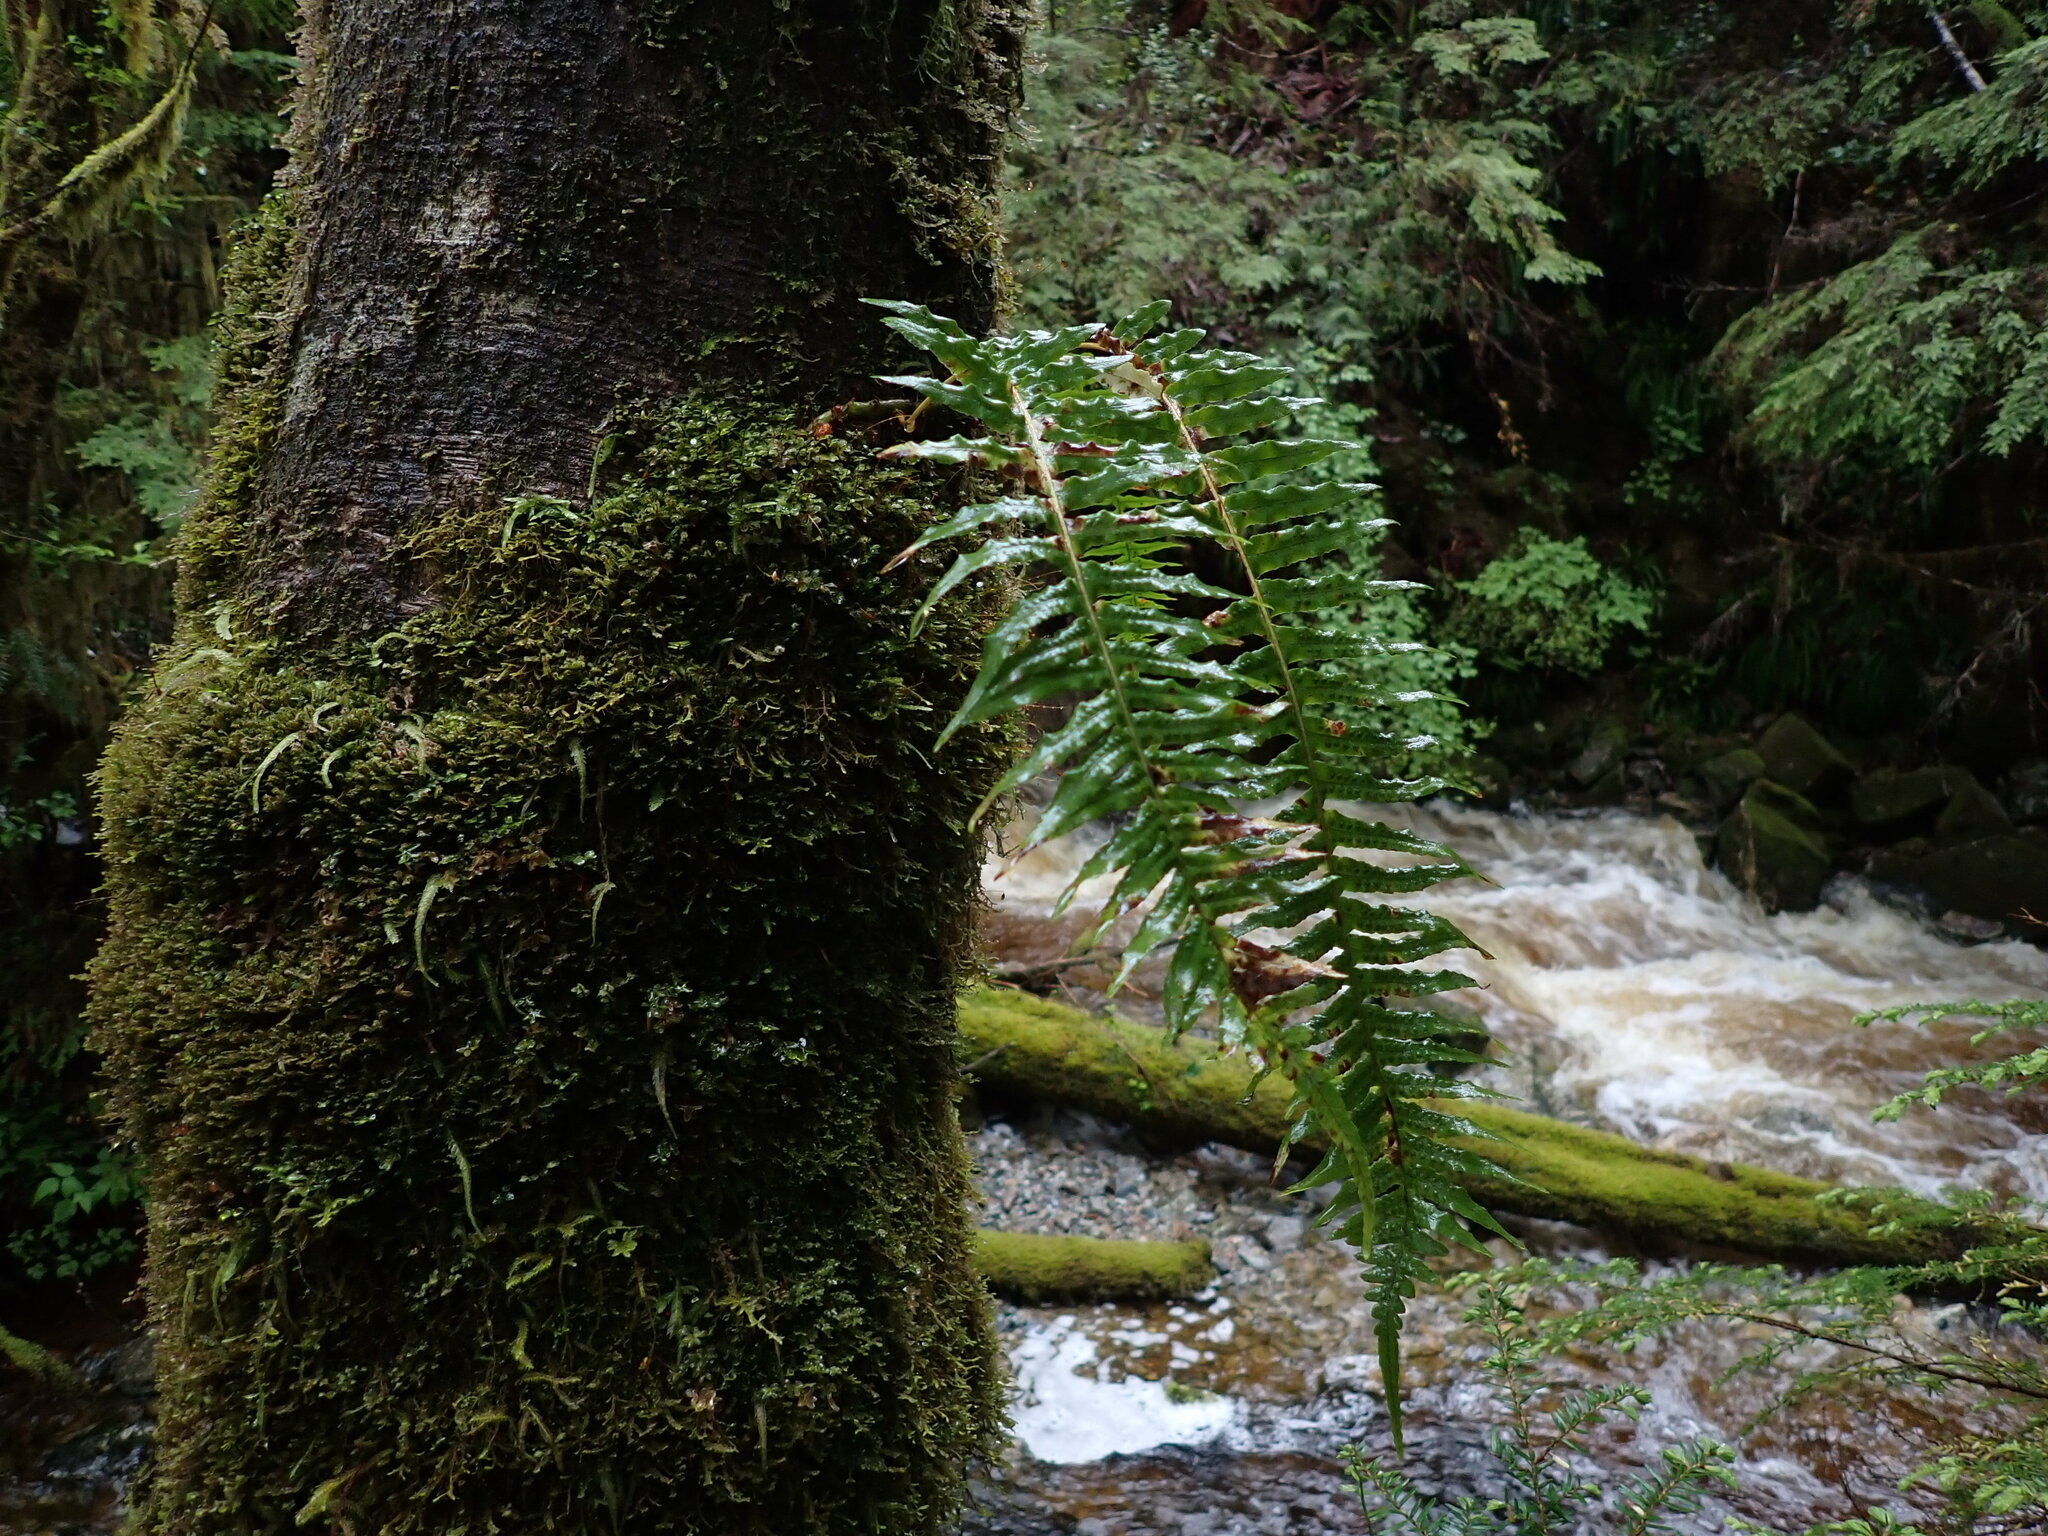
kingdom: Plantae
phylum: Tracheophyta
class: Polypodiopsida
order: Polypodiales
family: Polypodiaceae
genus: Polypodium
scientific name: Polypodium glycyrrhiza
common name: Licorice fern
